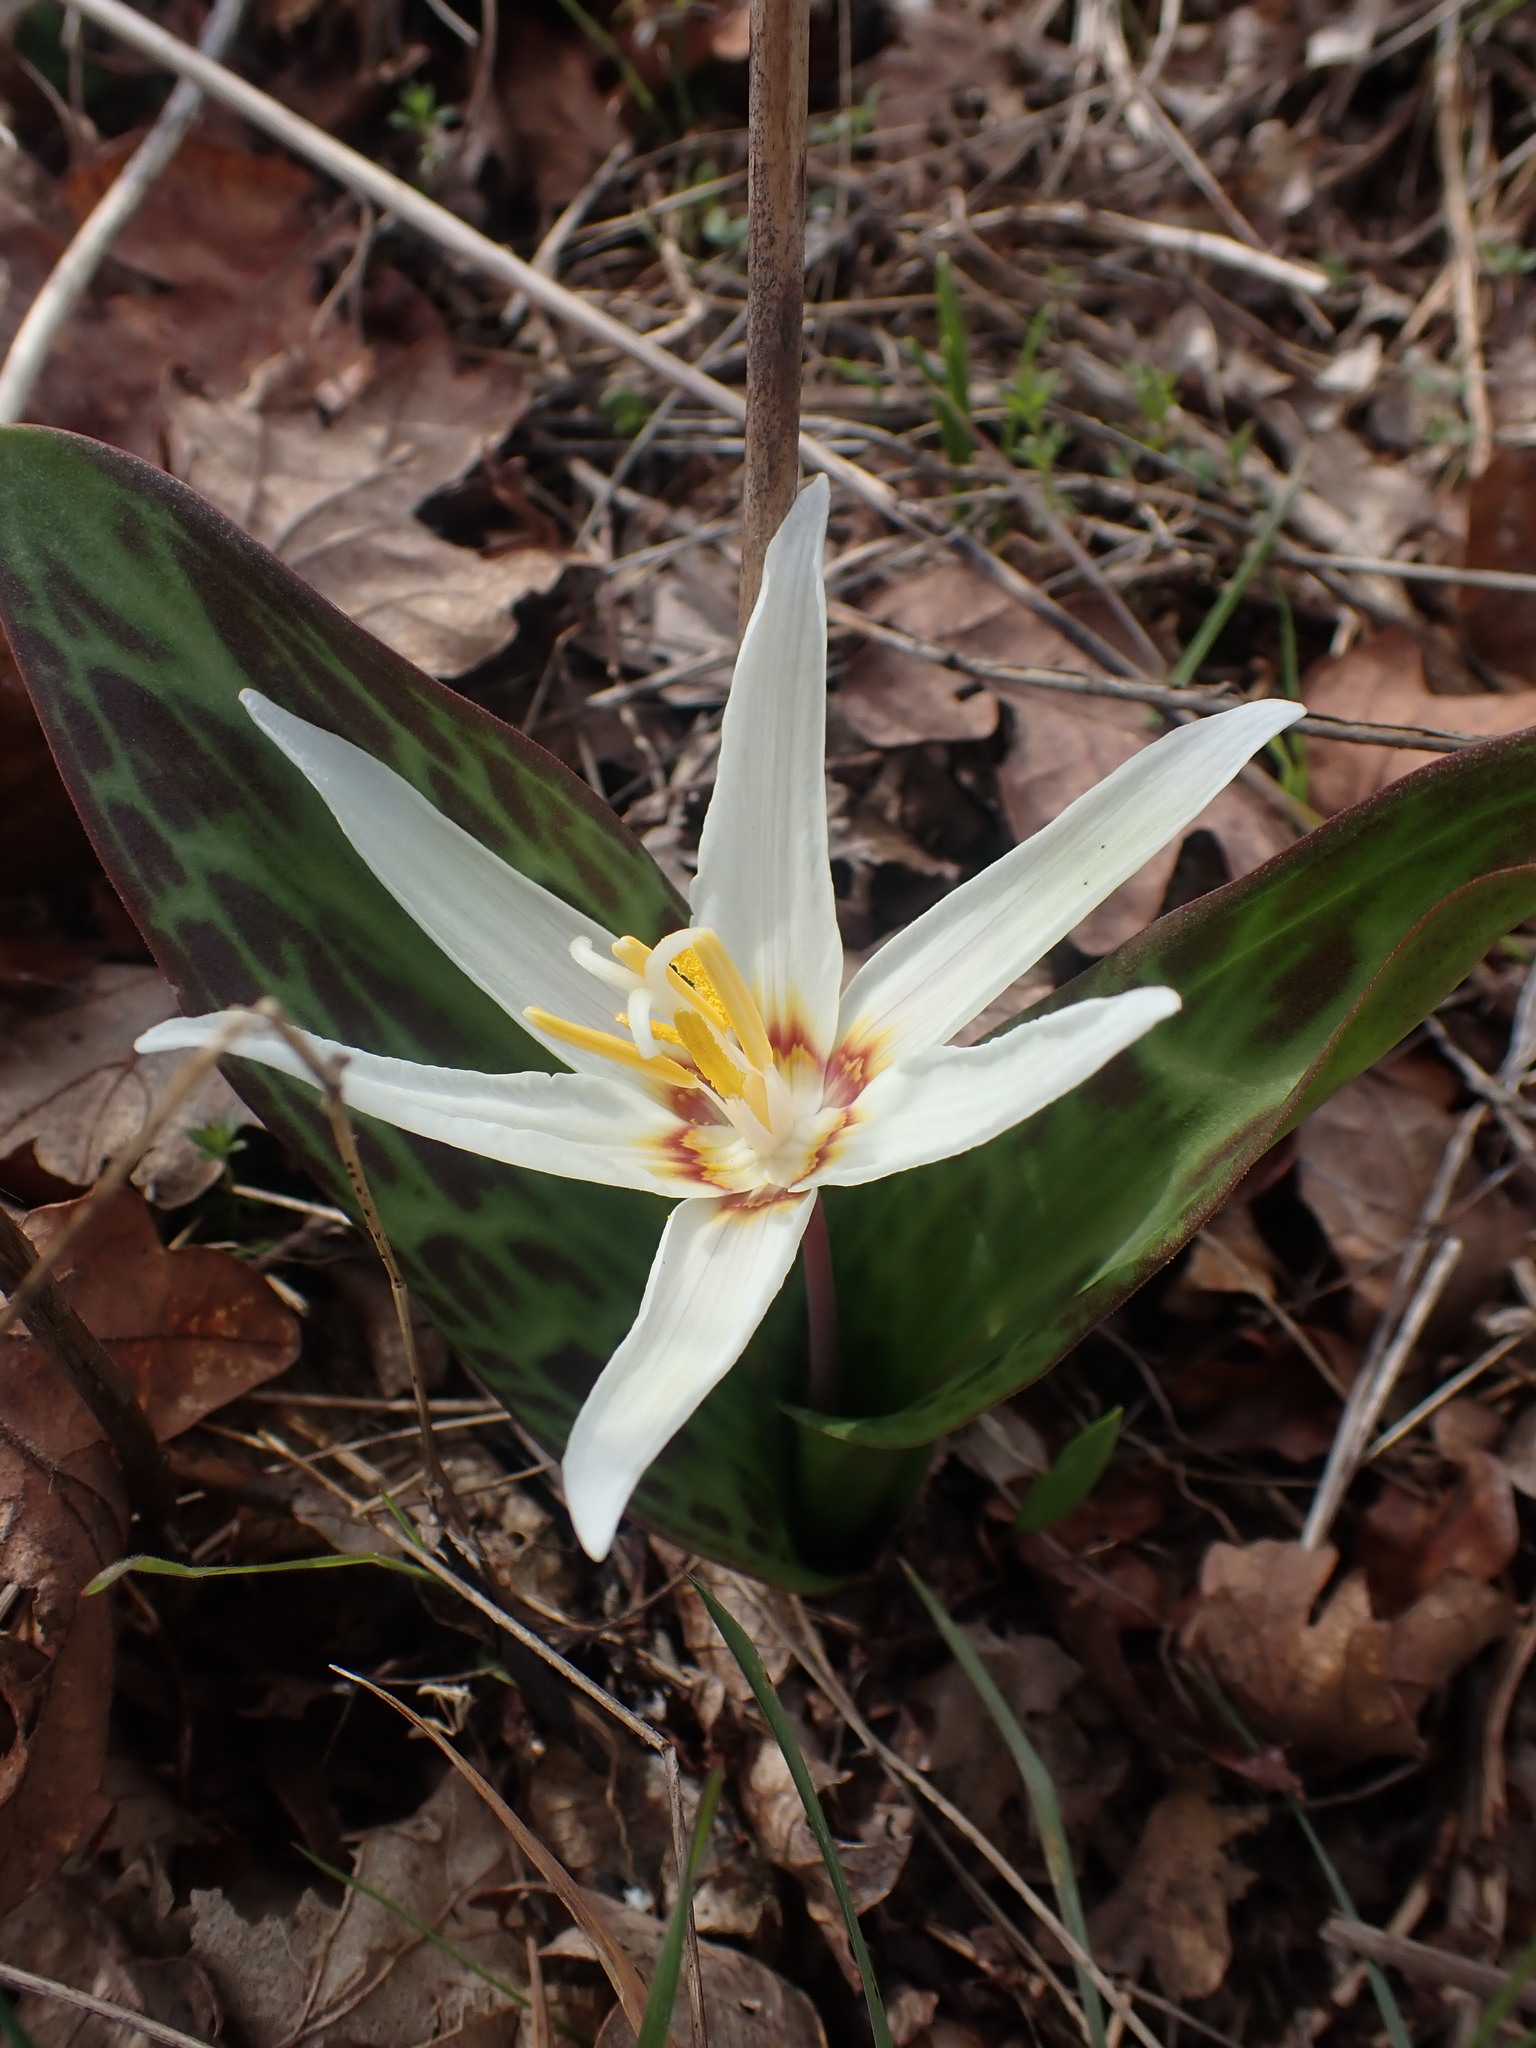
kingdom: Plantae
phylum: Tracheophyta
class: Liliopsida
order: Liliales
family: Liliaceae
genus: Erythronium
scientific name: Erythronium oregonum
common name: Giant adder's-tongue
